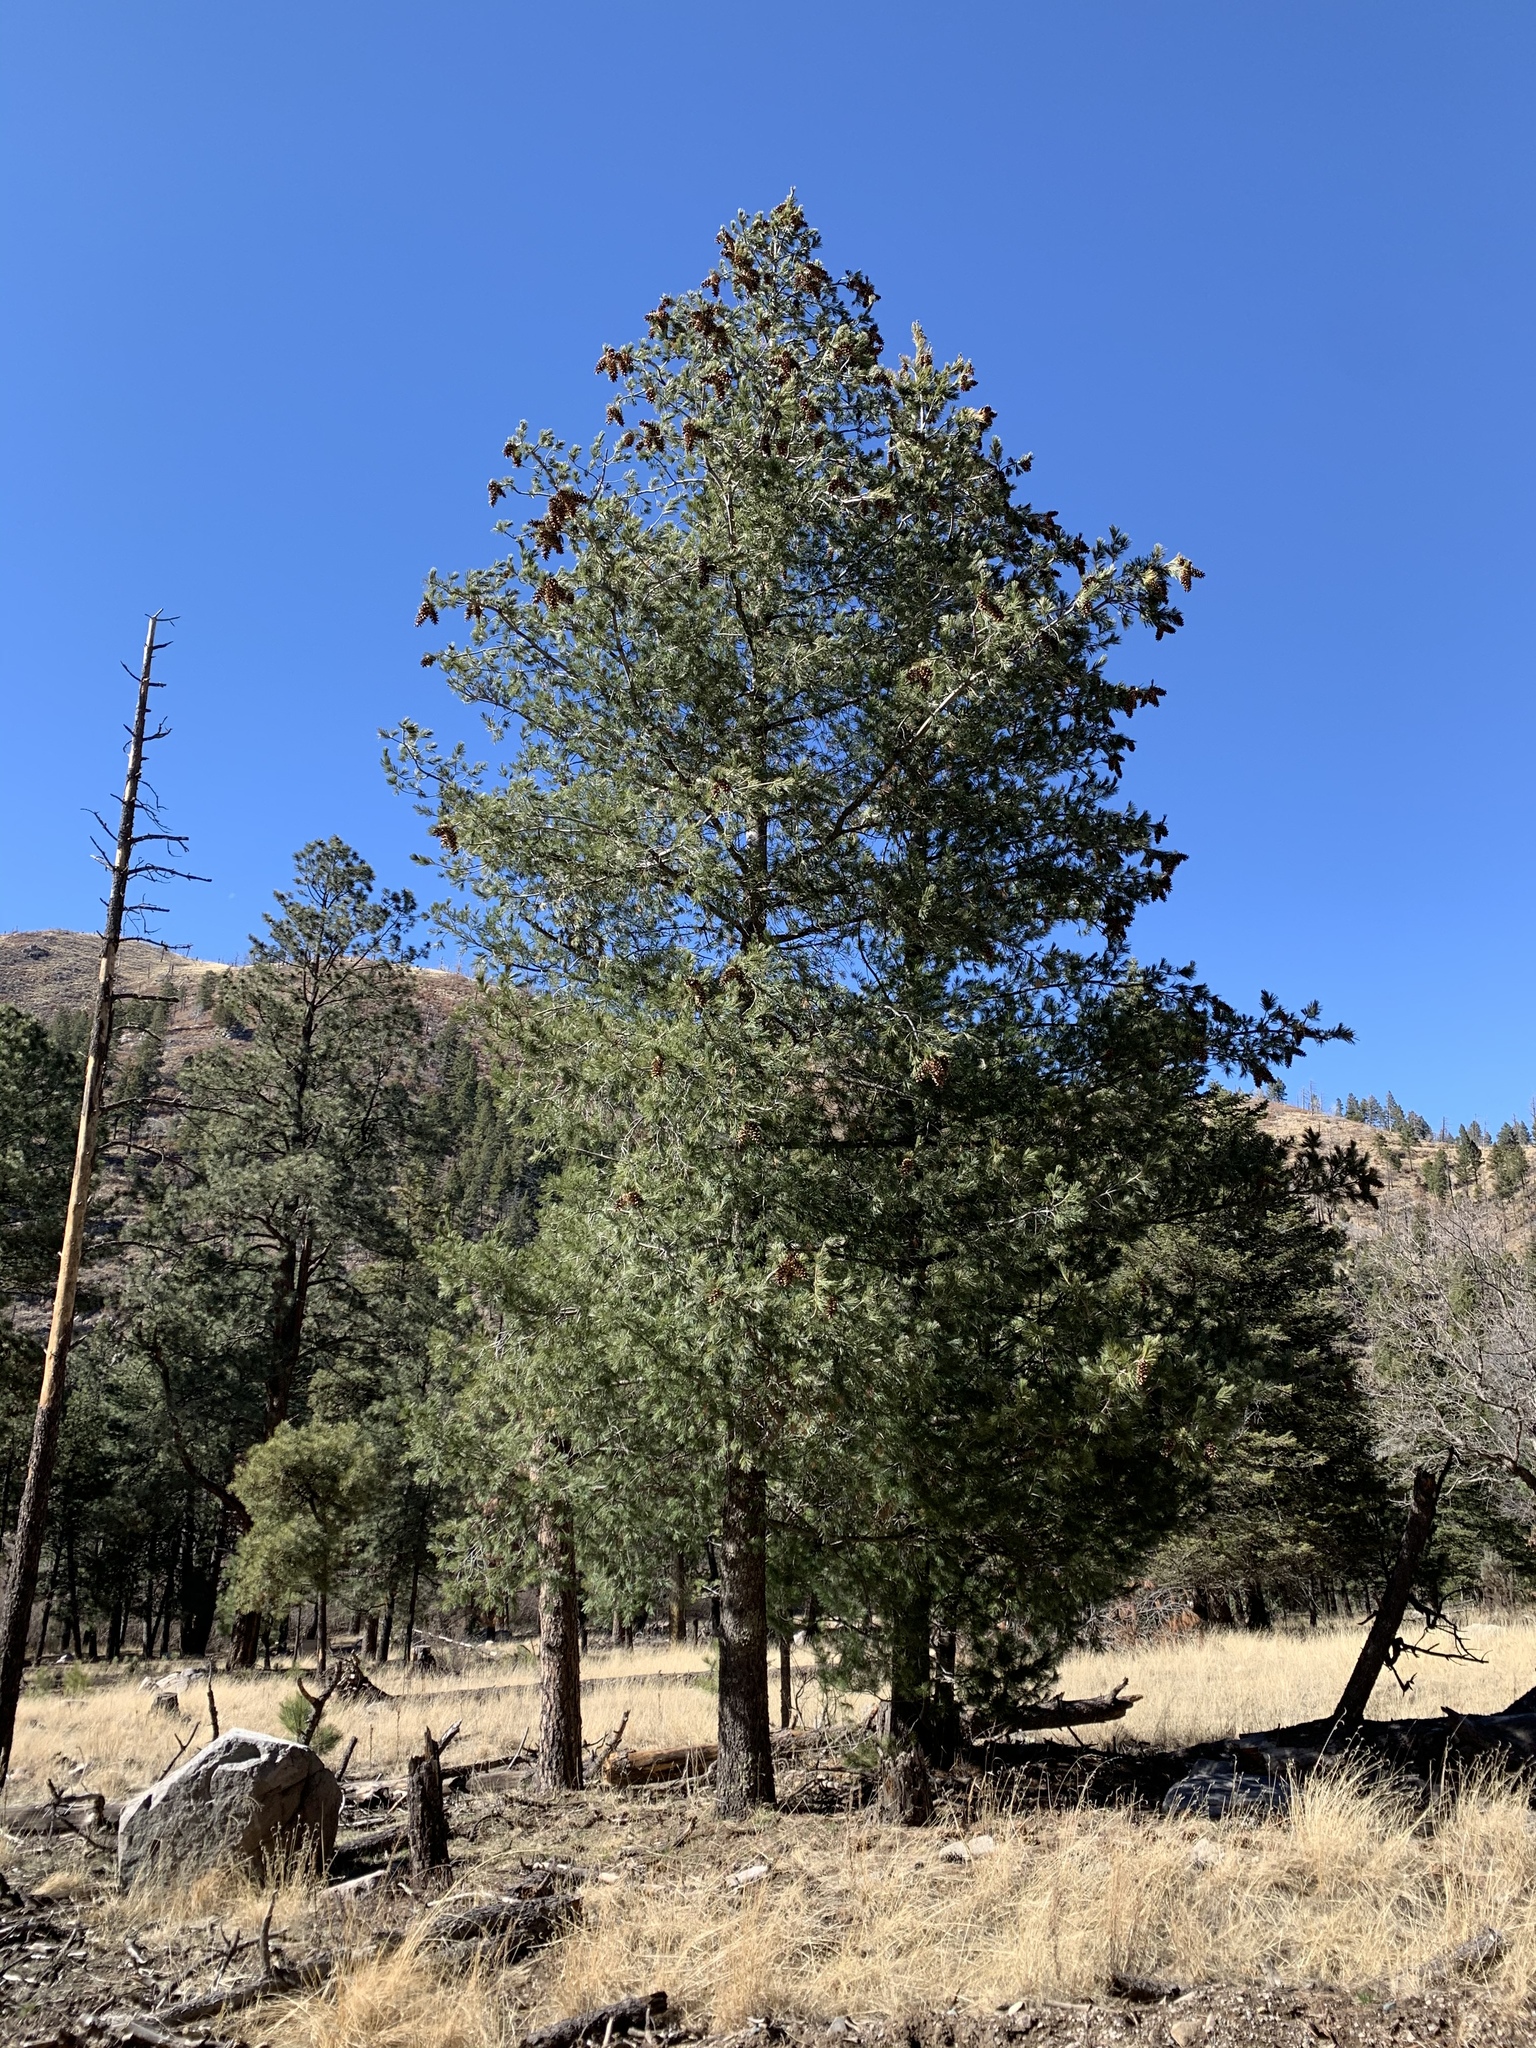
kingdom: Plantae
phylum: Tracheophyta
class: Pinopsida
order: Pinales
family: Pinaceae
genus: Pinus
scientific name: Pinus strobiformis
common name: Southwestern white pine
